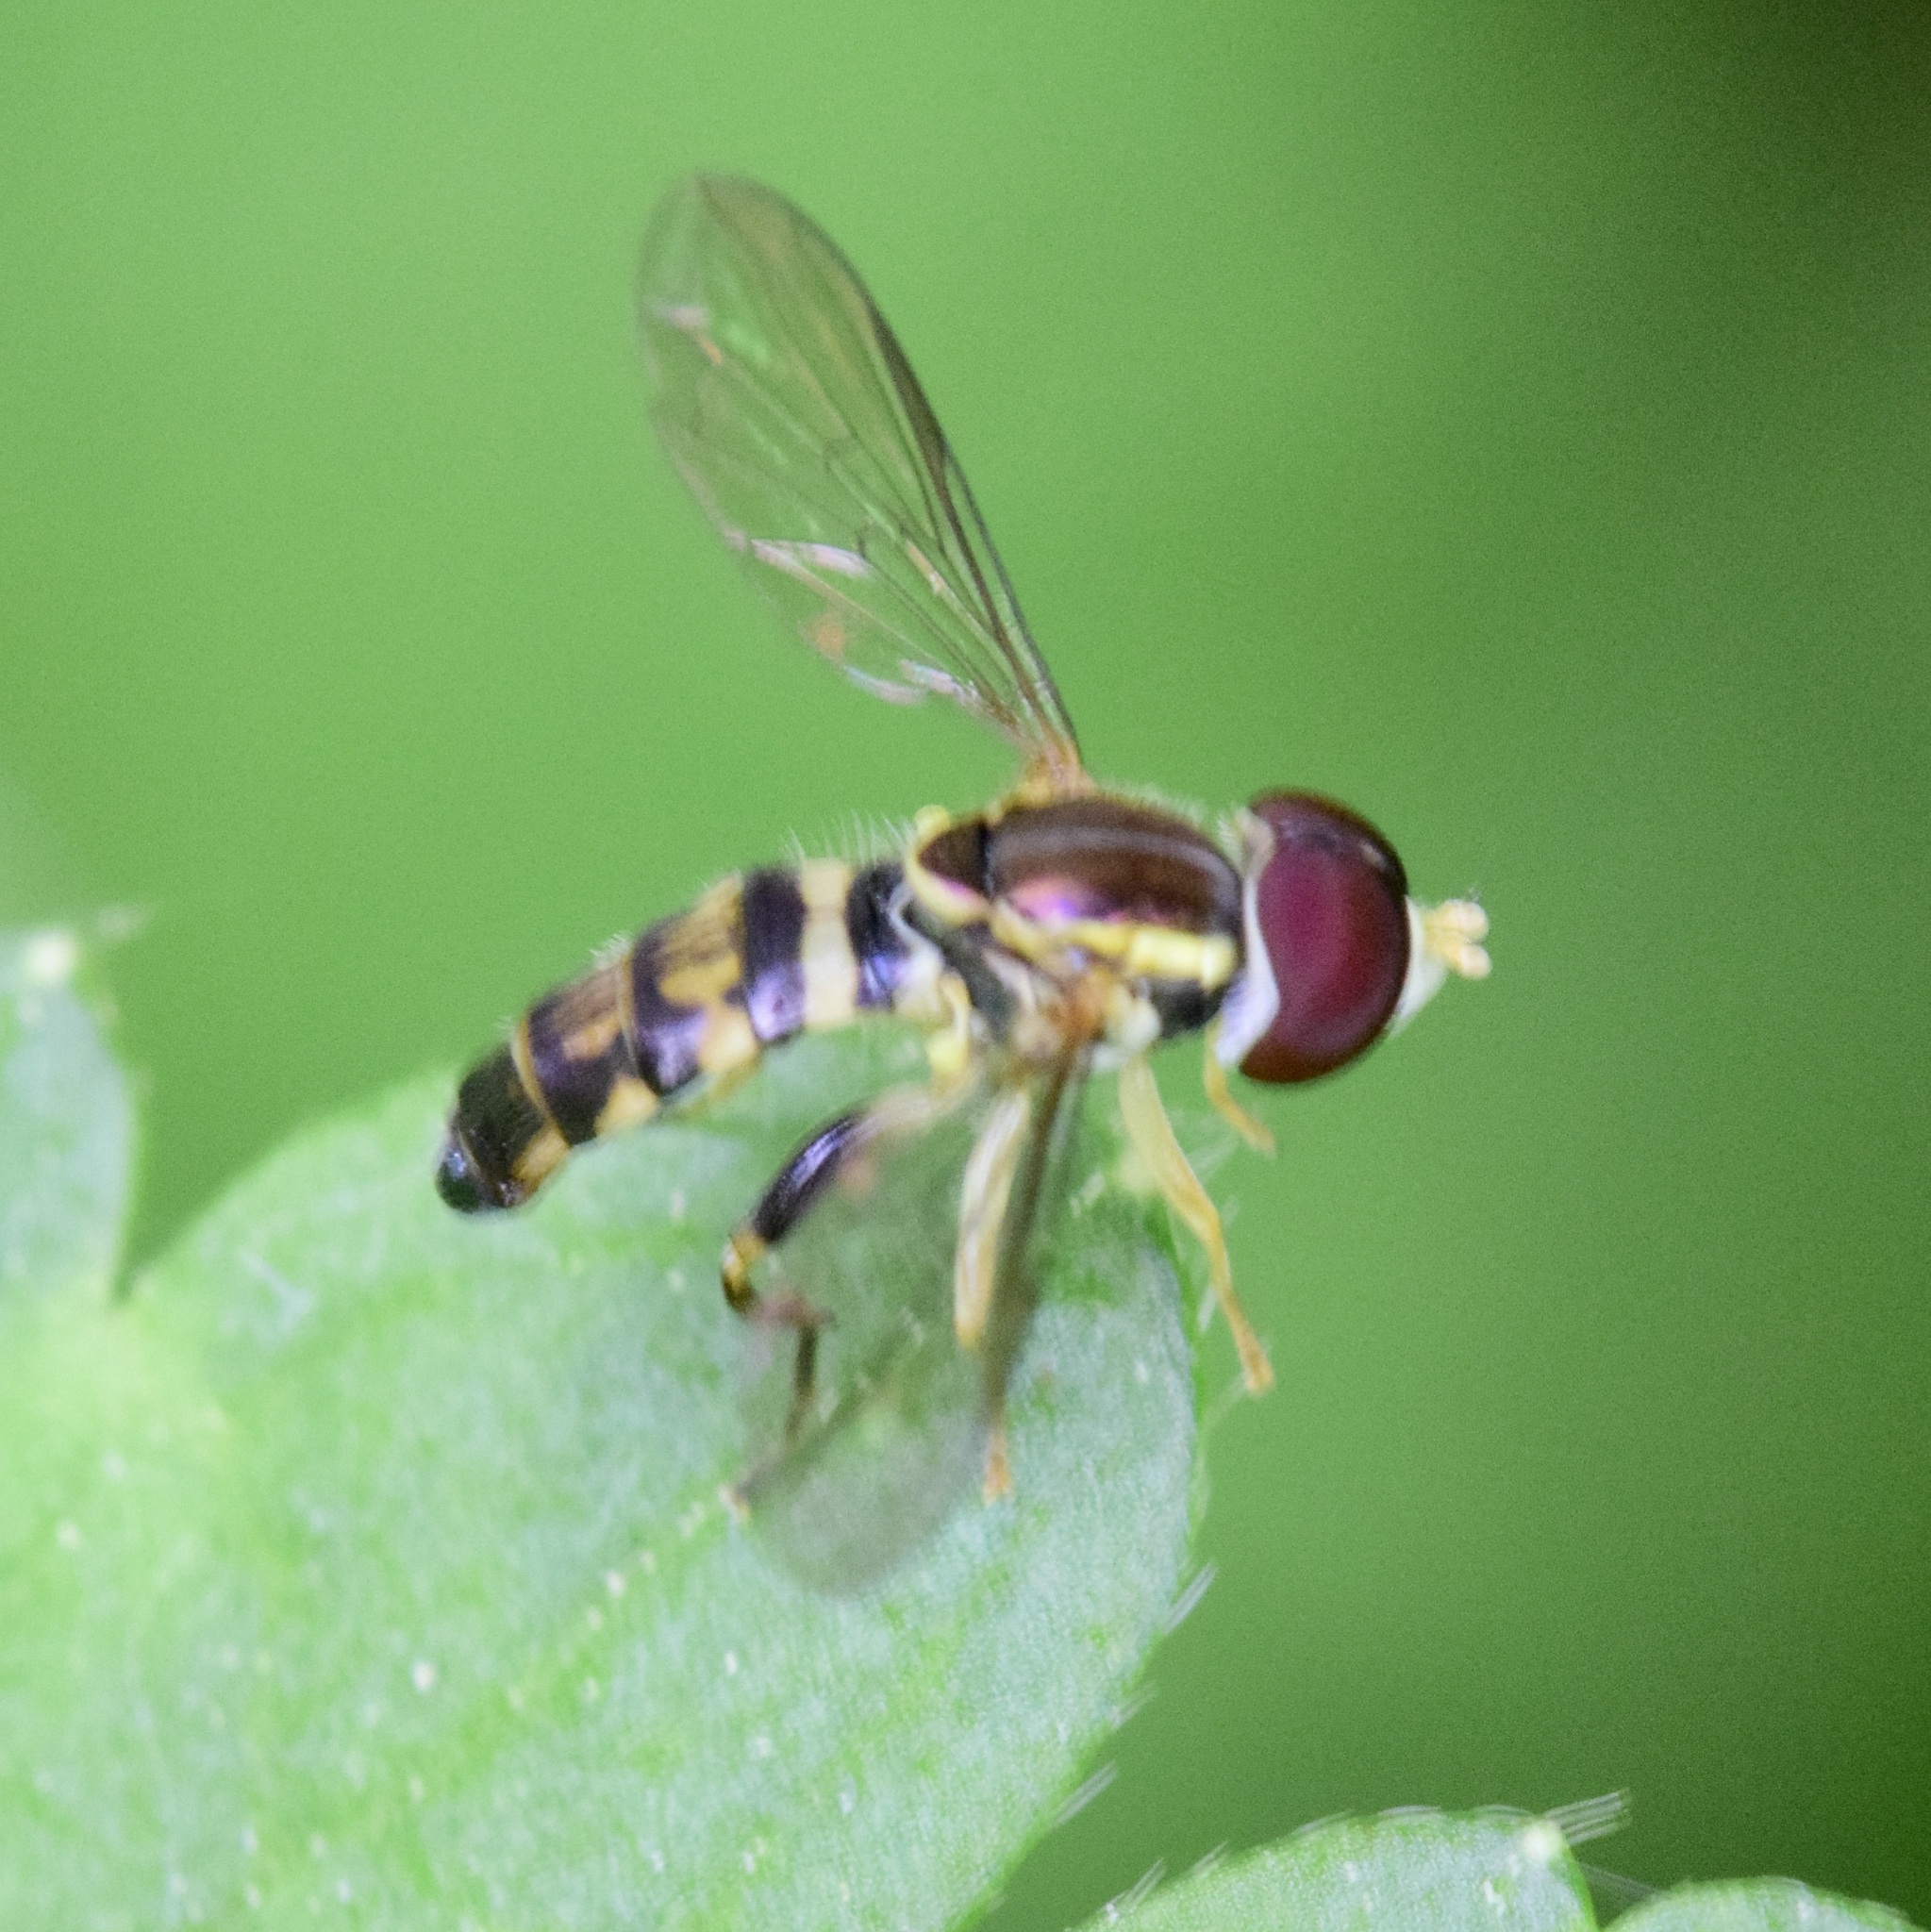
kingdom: Animalia
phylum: Arthropoda
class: Insecta
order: Diptera
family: Syrphidae
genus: Toxomerus
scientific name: Toxomerus geminatus
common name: Eastern calligrapher
